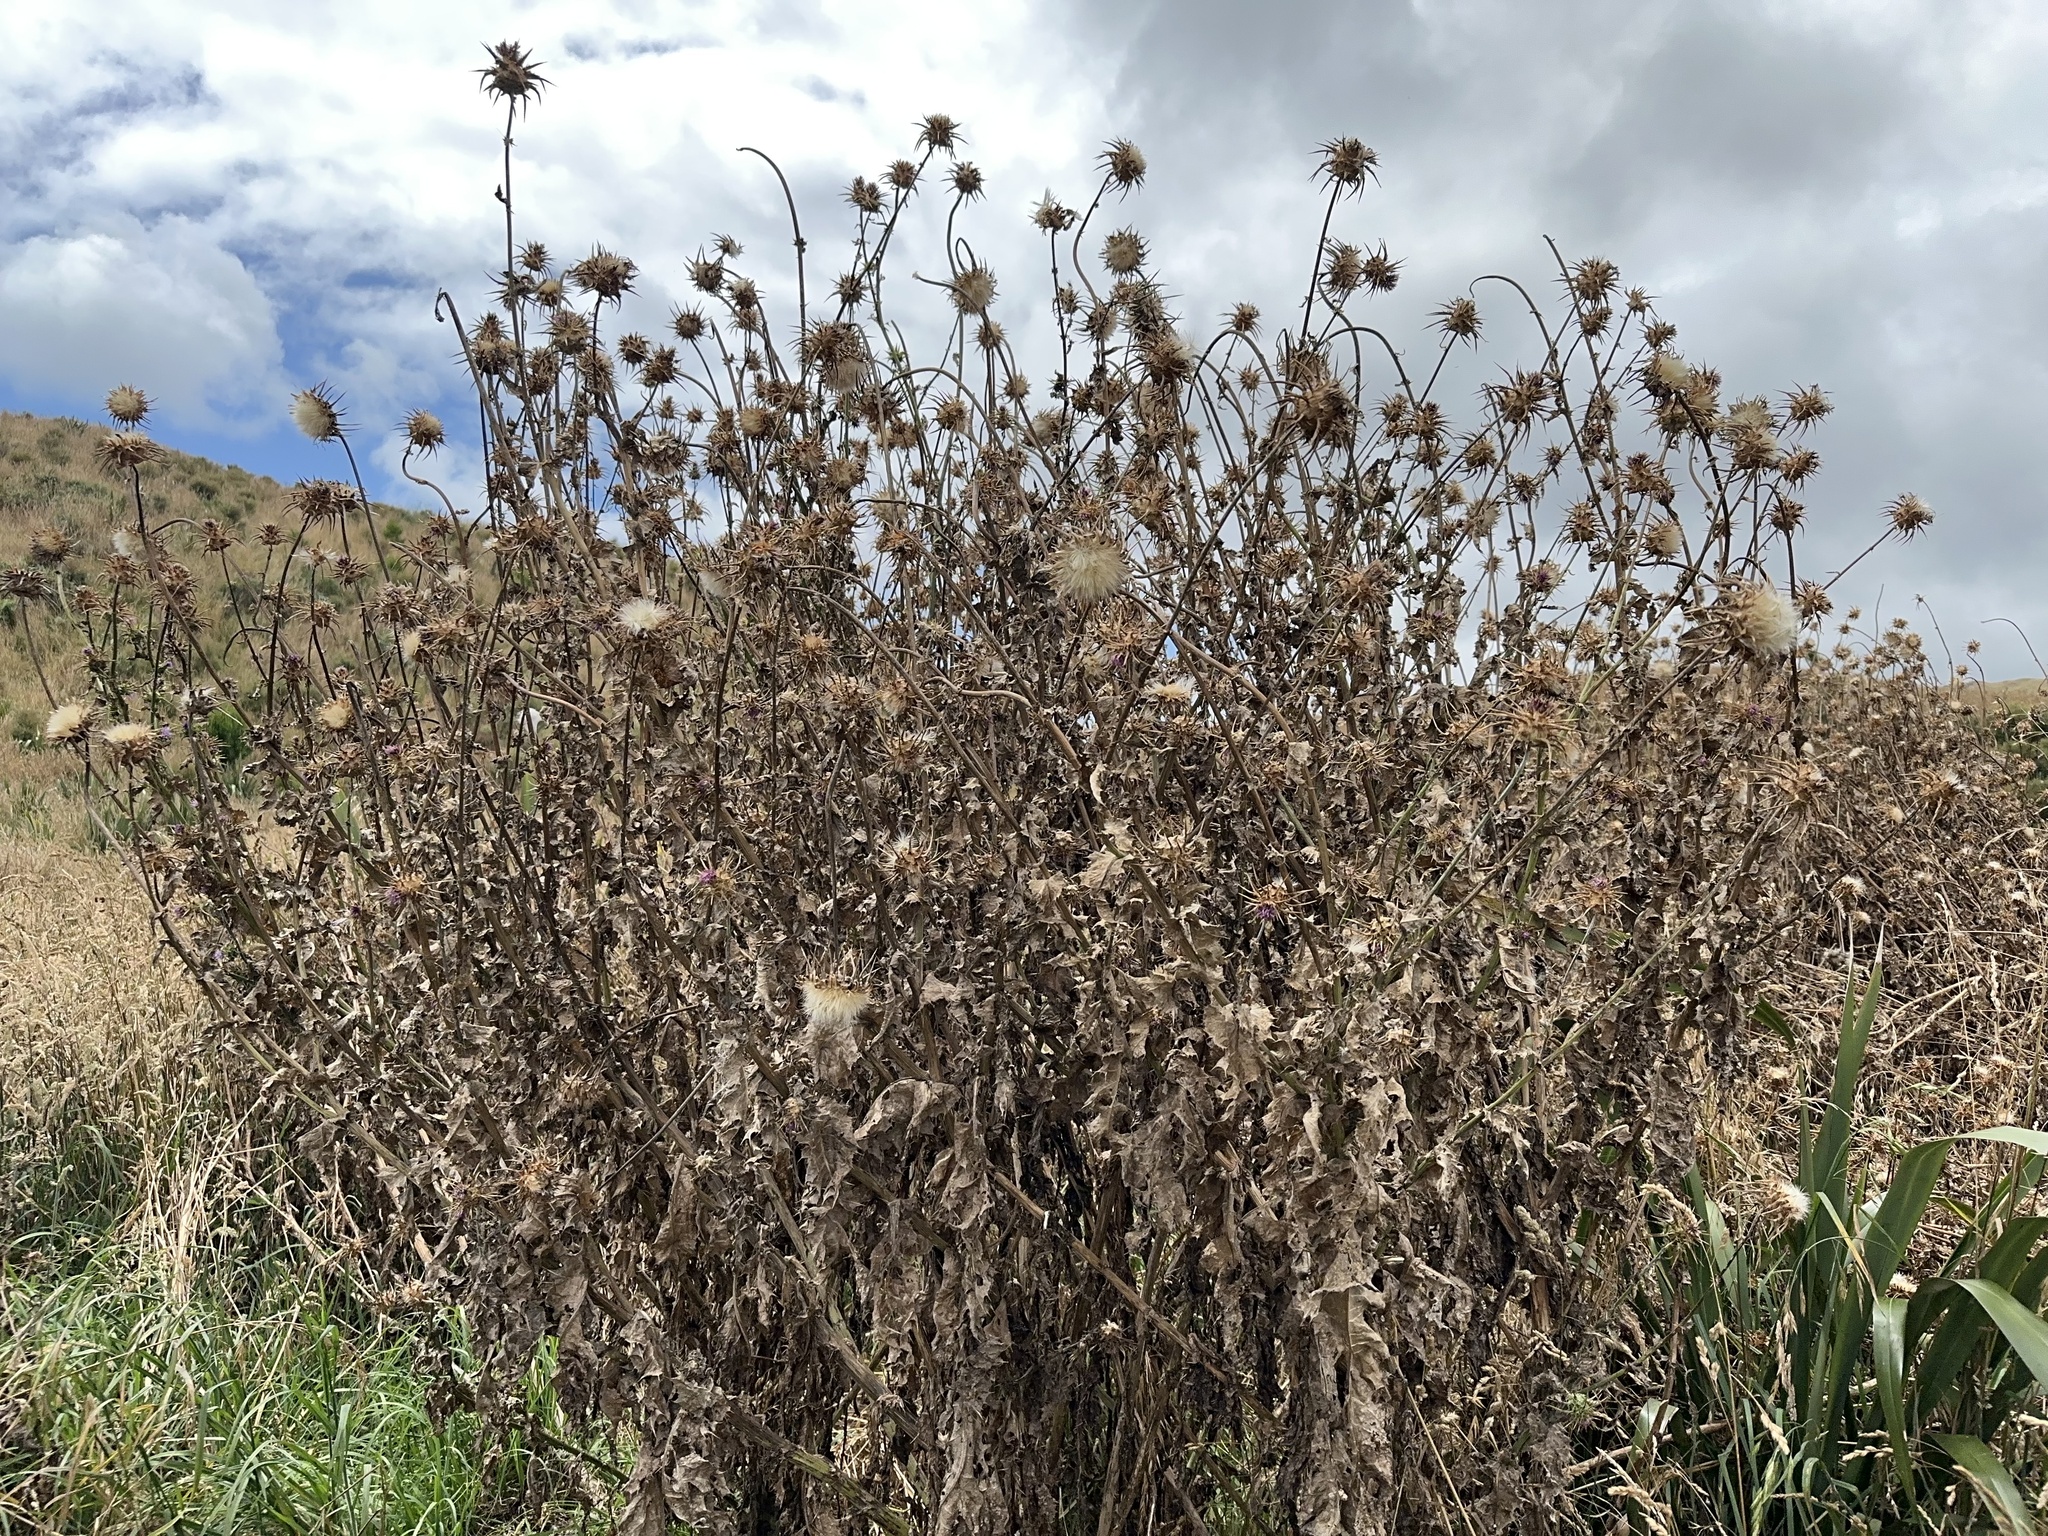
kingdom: Plantae
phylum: Tracheophyta
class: Magnoliopsida
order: Asterales
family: Asteraceae
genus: Silybum
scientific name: Silybum marianum
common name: Milk thistle
